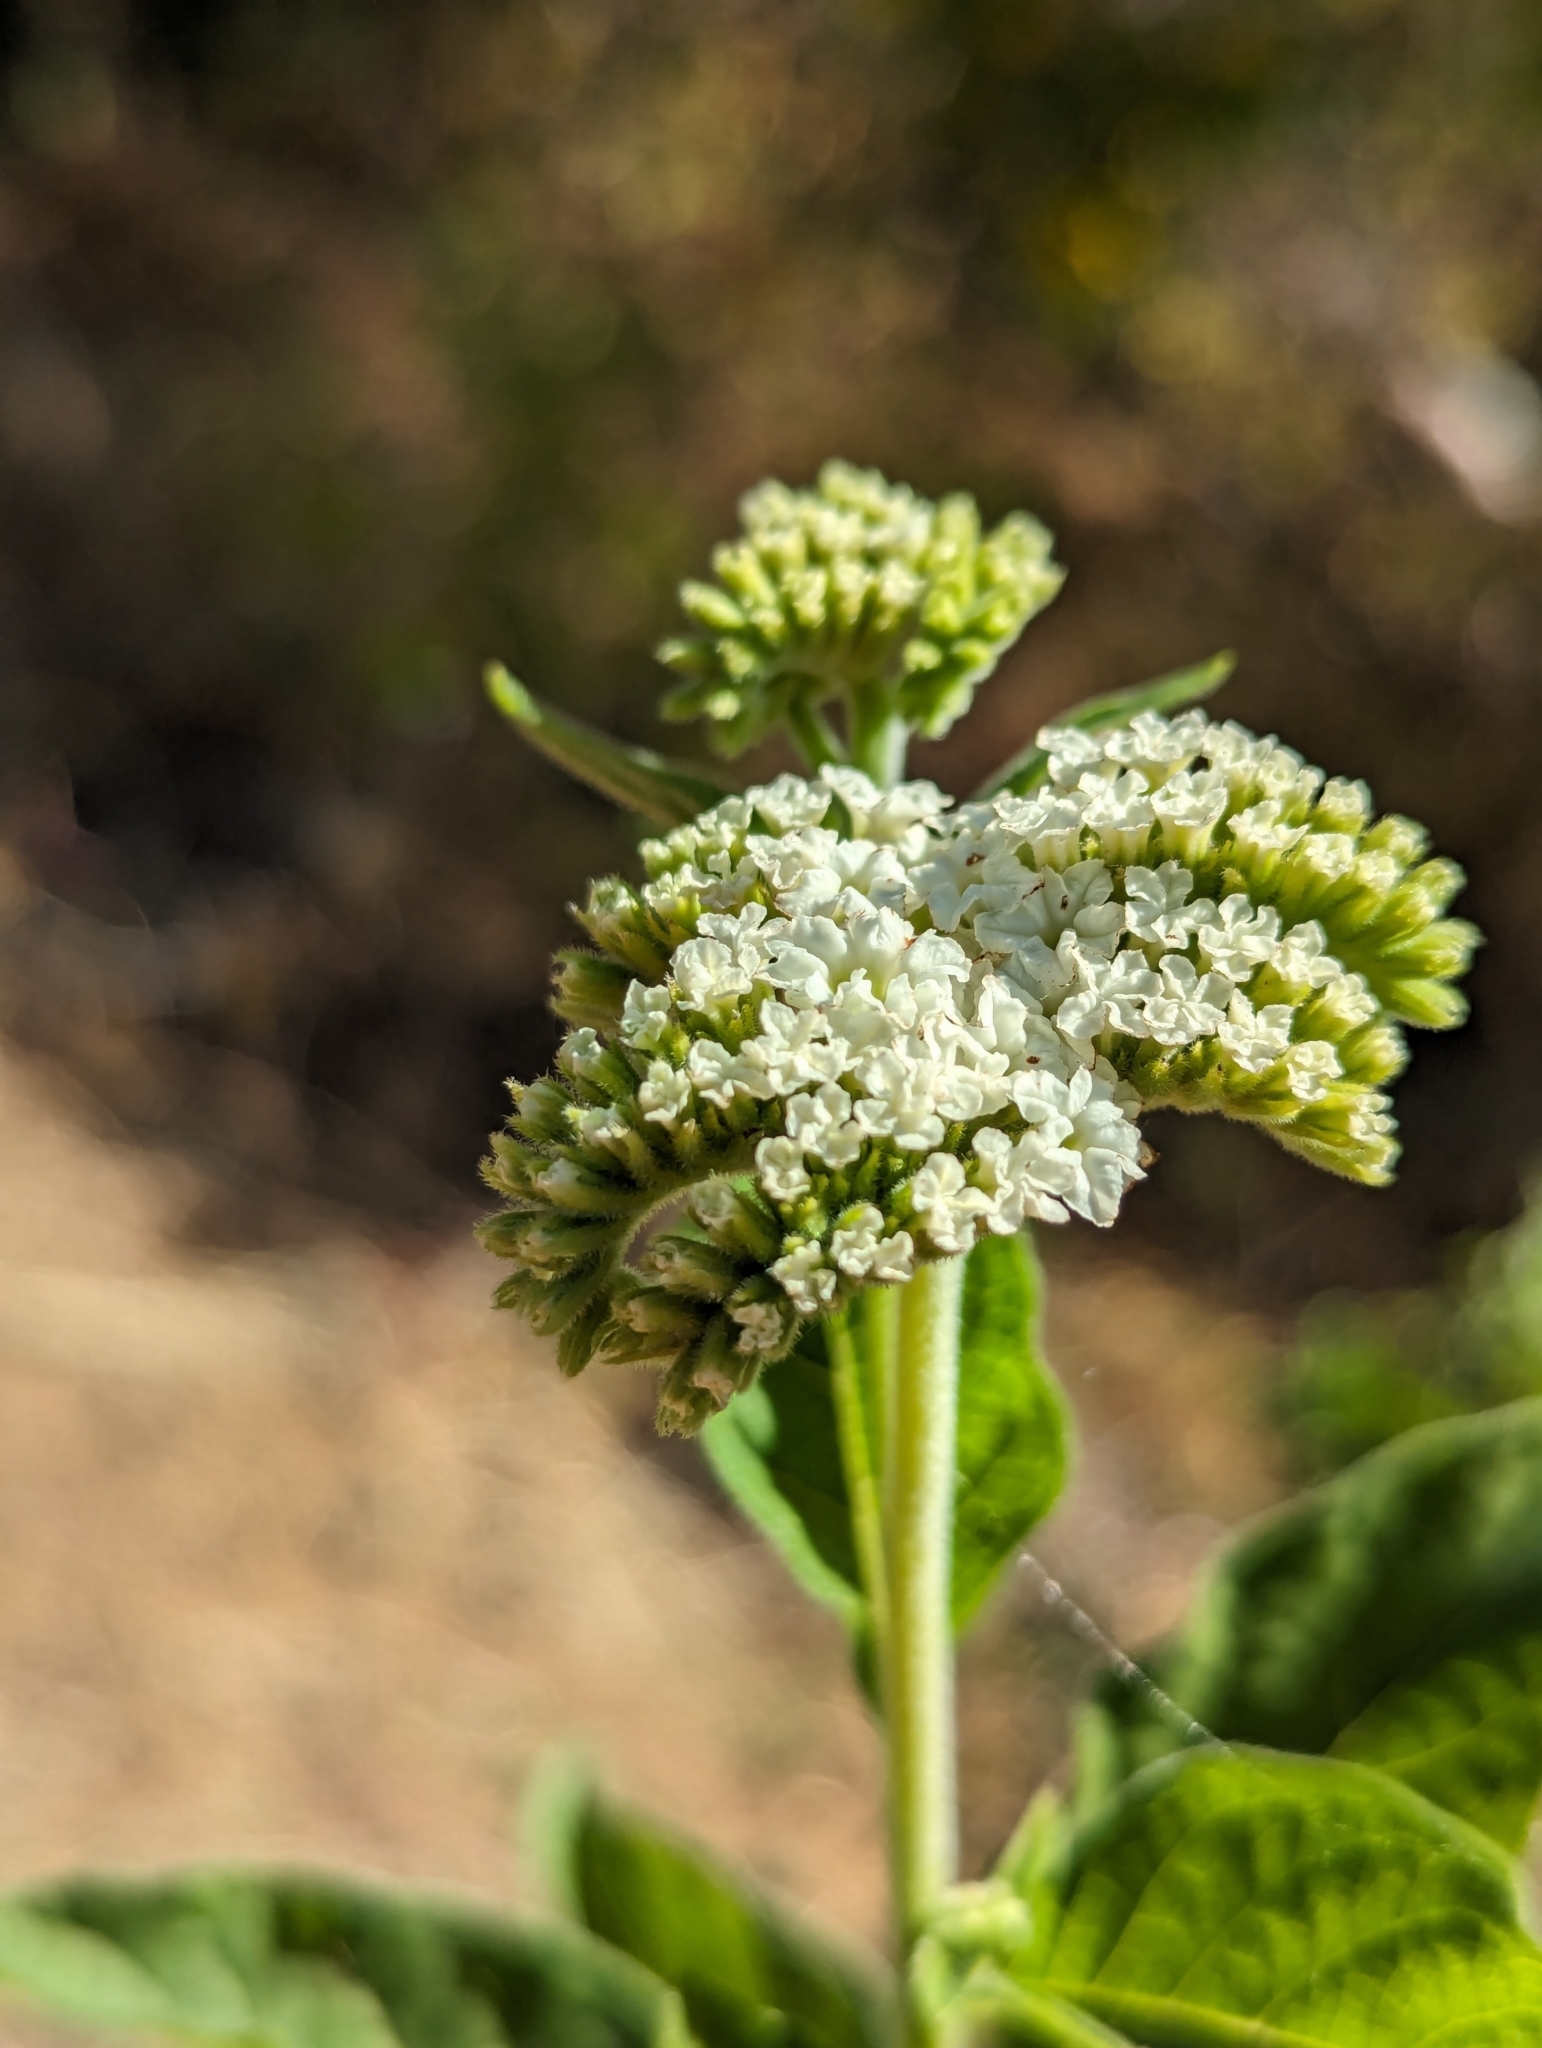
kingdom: Plantae
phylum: Tracheophyta
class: Magnoliopsida
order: Boraginales
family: Heliotropiaceae
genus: Tournefortia
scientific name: Tournefortia mutabilis
